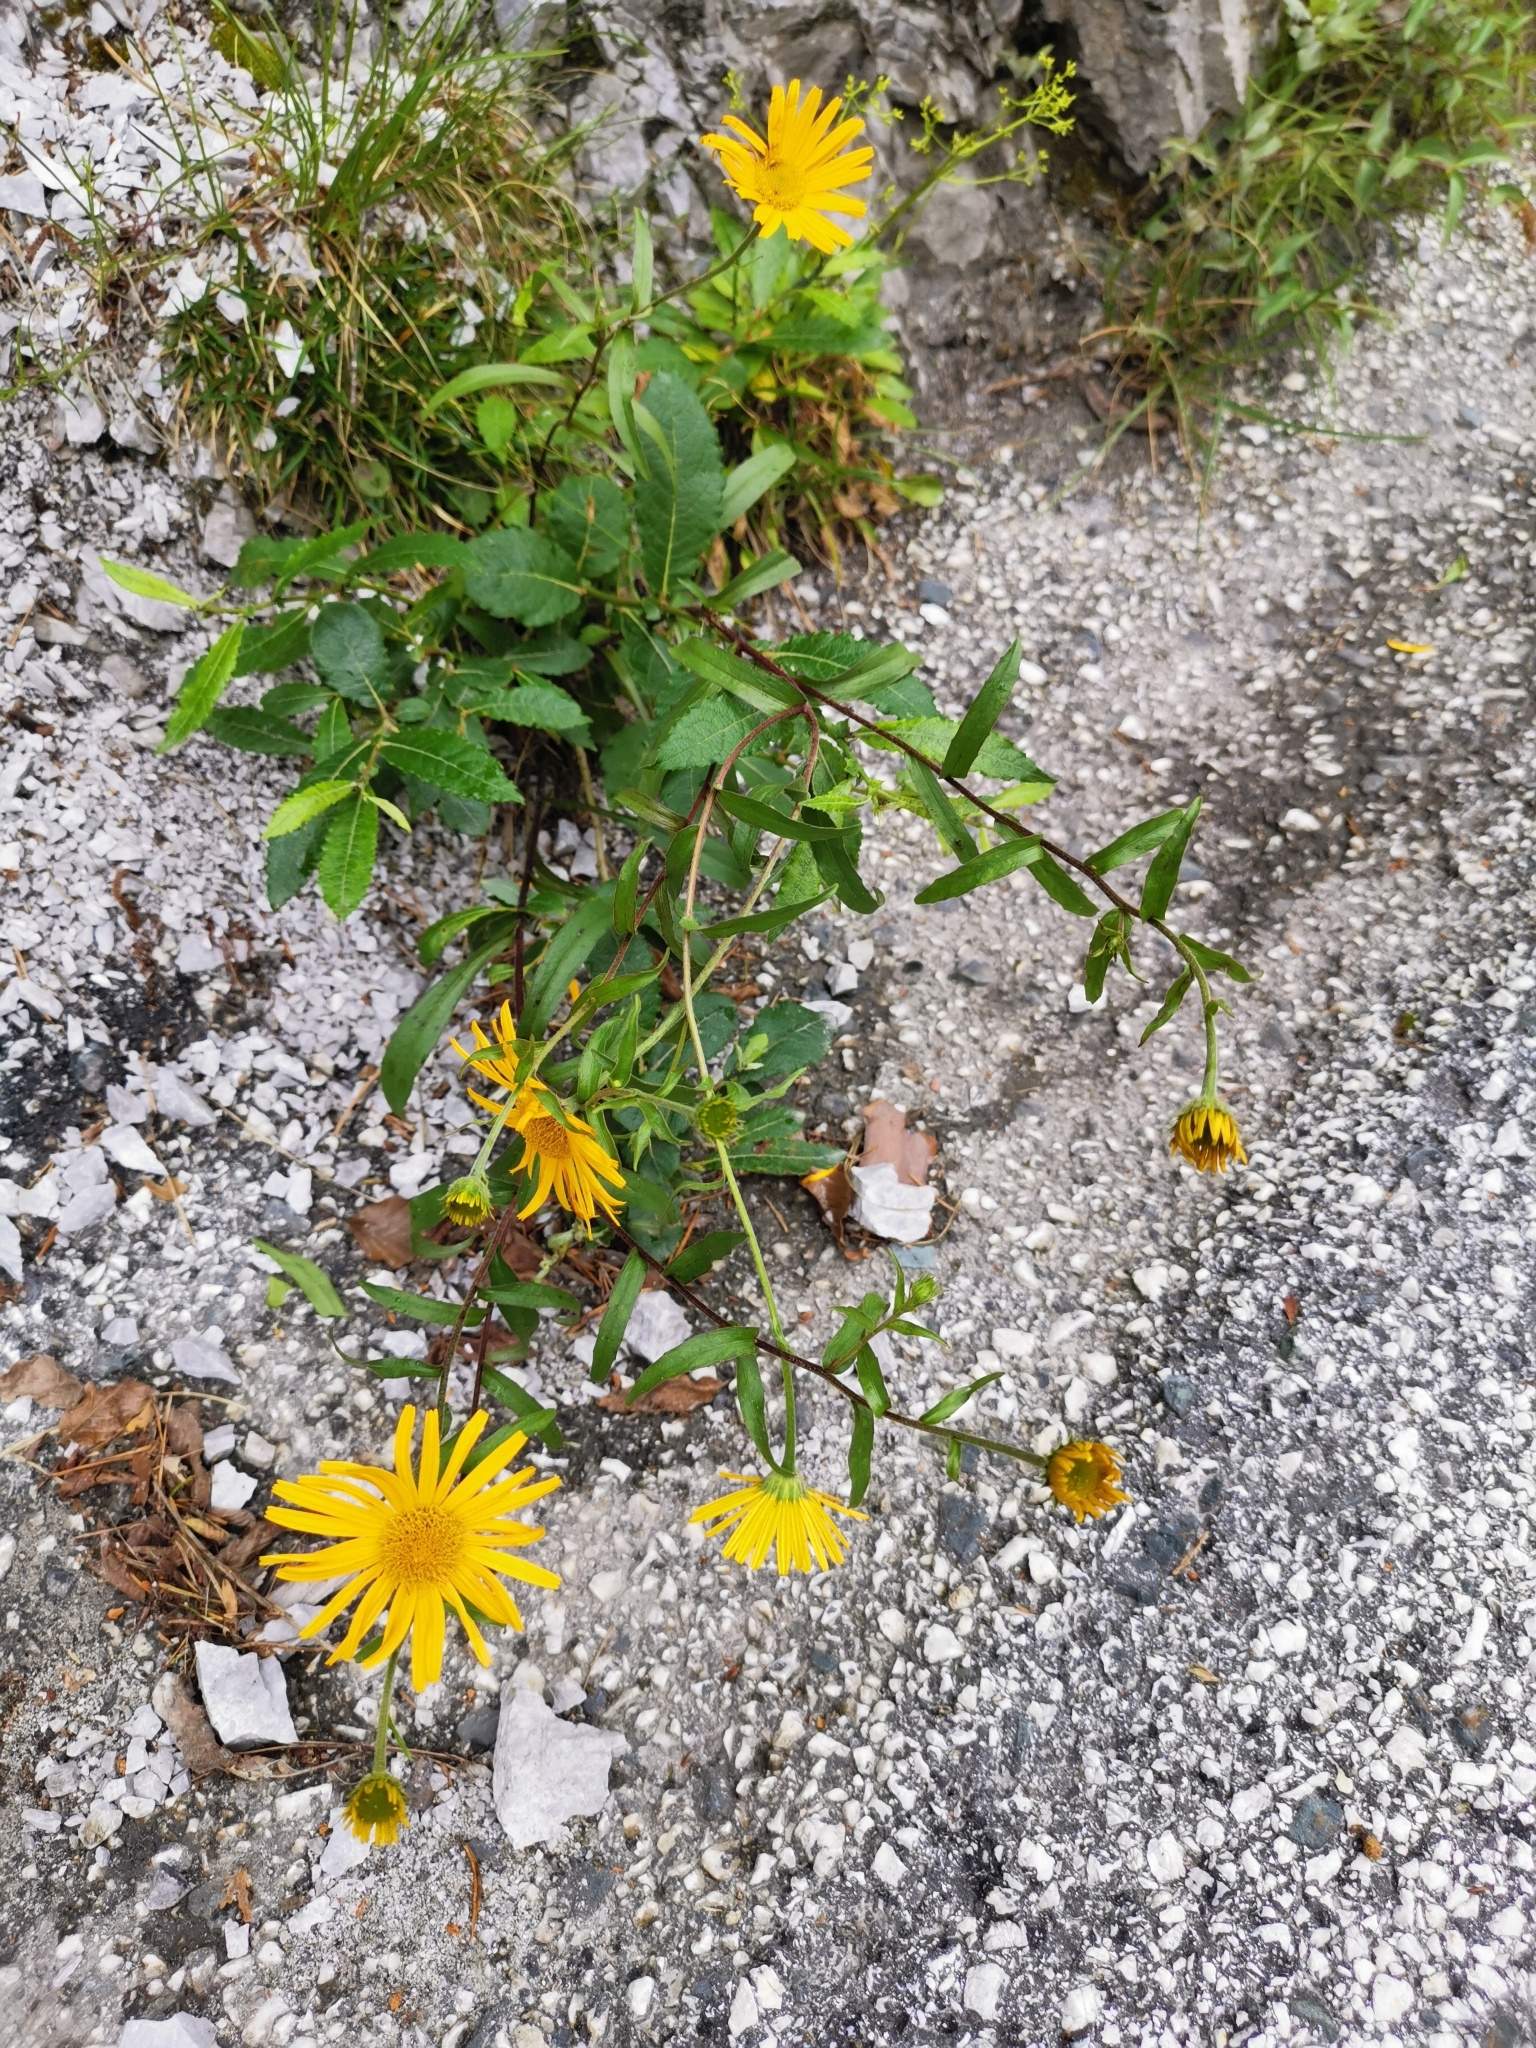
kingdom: Plantae
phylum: Tracheophyta
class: Magnoliopsida
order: Asterales
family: Asteraceae
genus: Buphthalmum
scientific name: Buphthalmum salicifolium
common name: Willow-leaved yellow-oxeye
